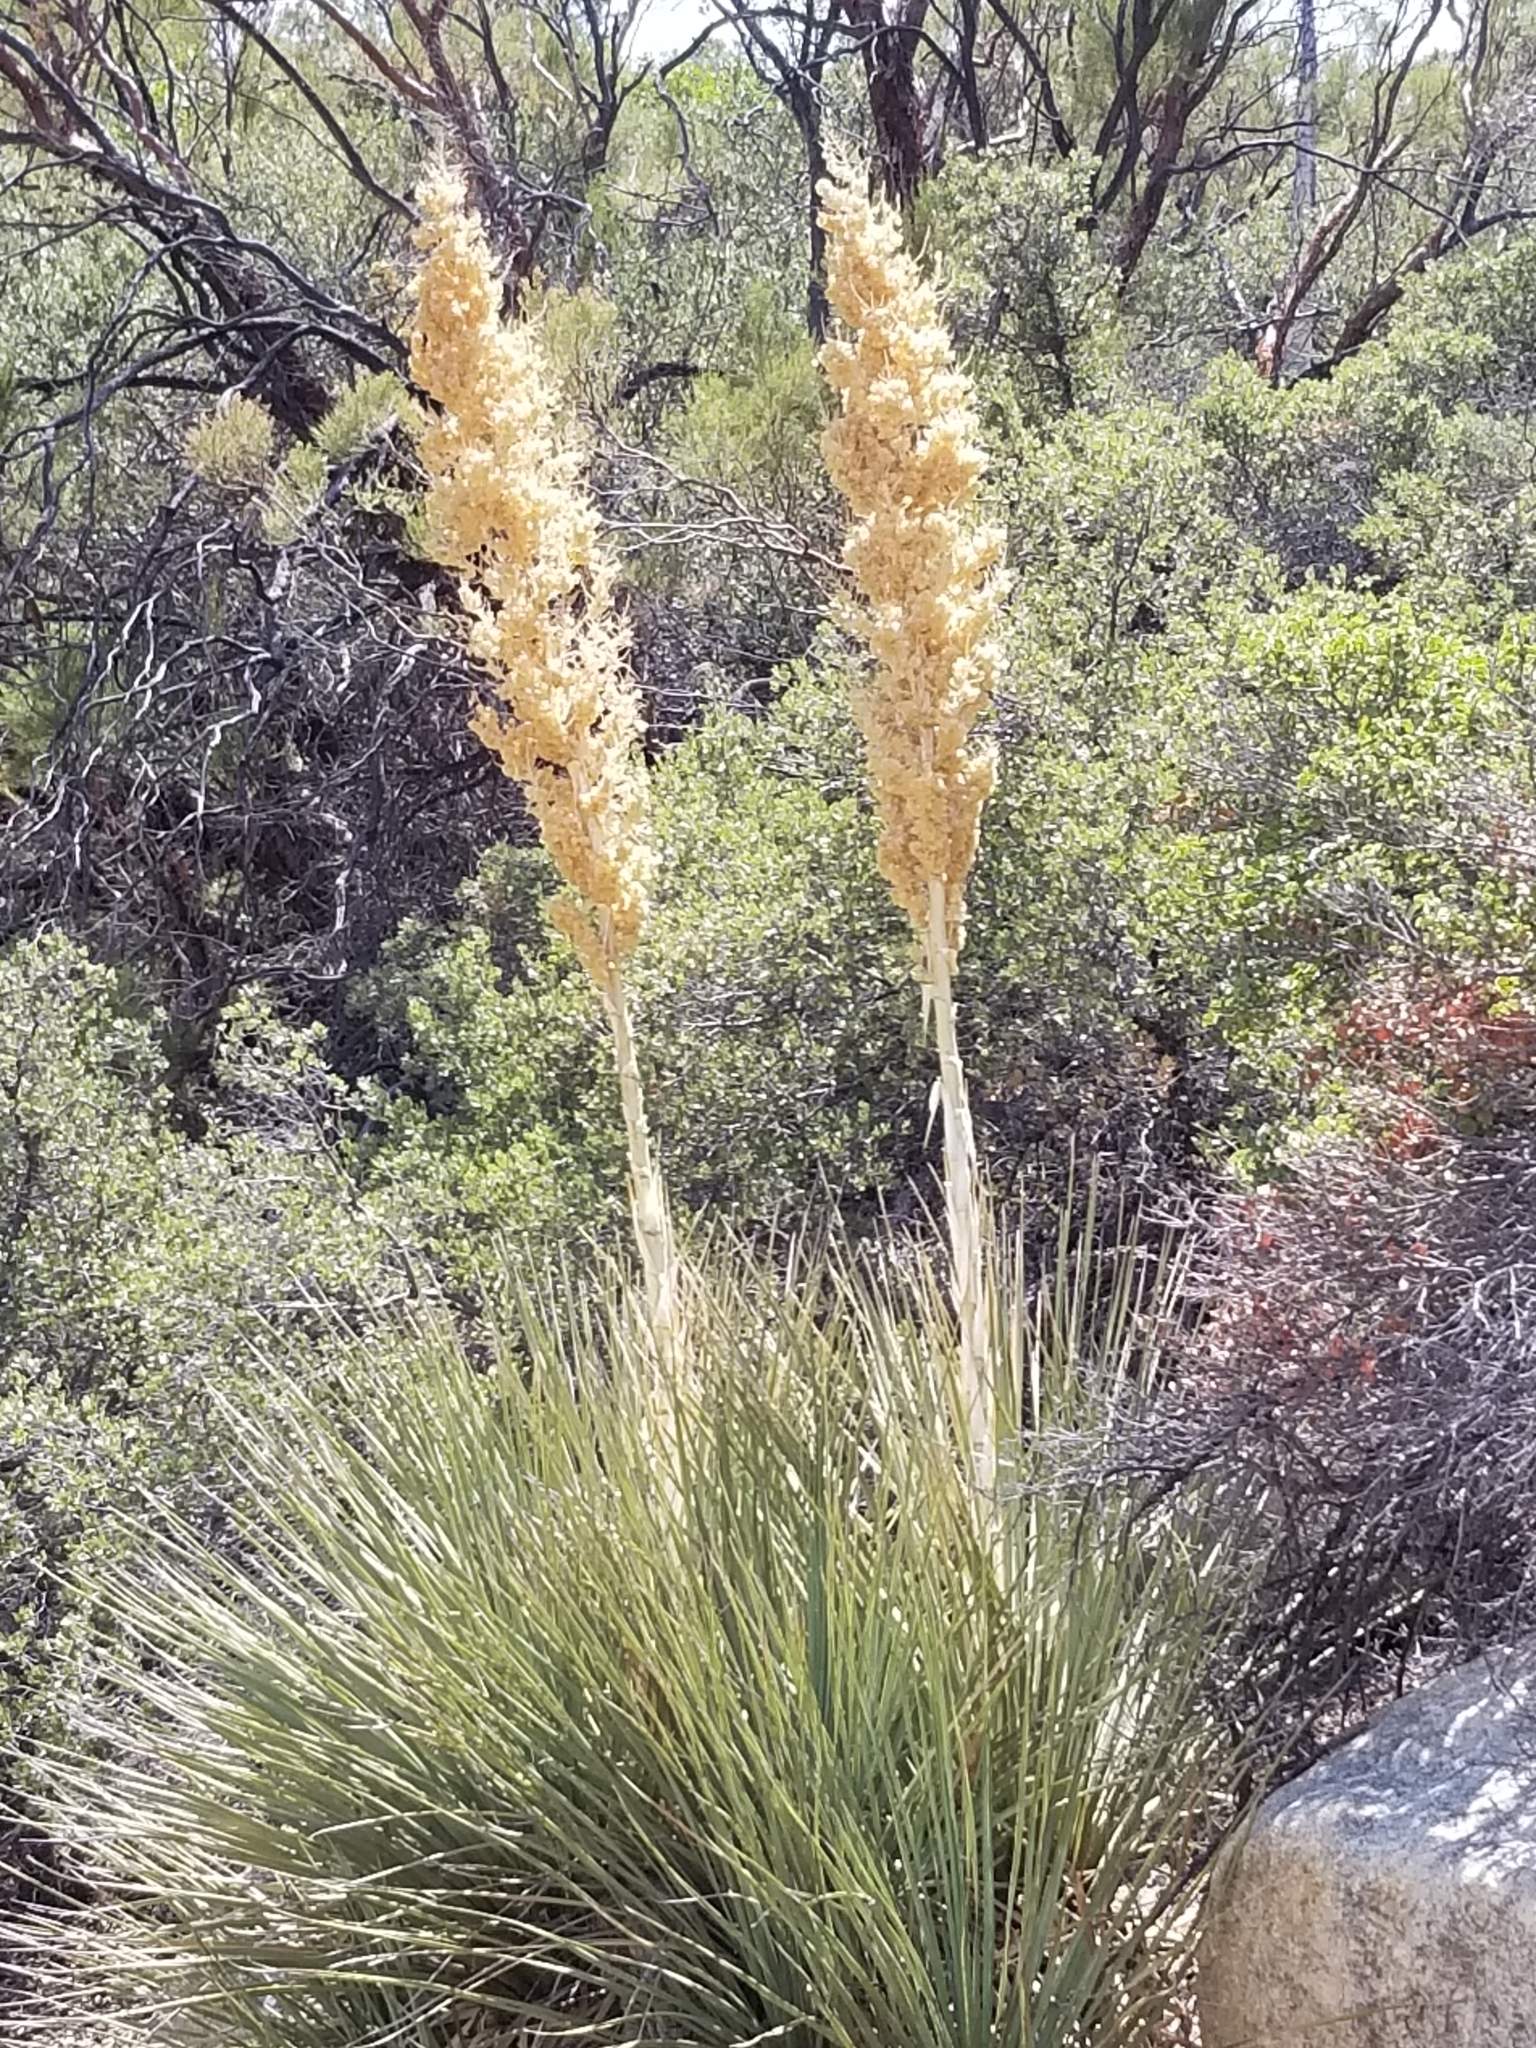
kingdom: Plantae
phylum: Tracheophyta
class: Liliopsida
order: Asparagales
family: Asparagaceae
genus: Nolina
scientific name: Nolina parryi
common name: Parry nolina
